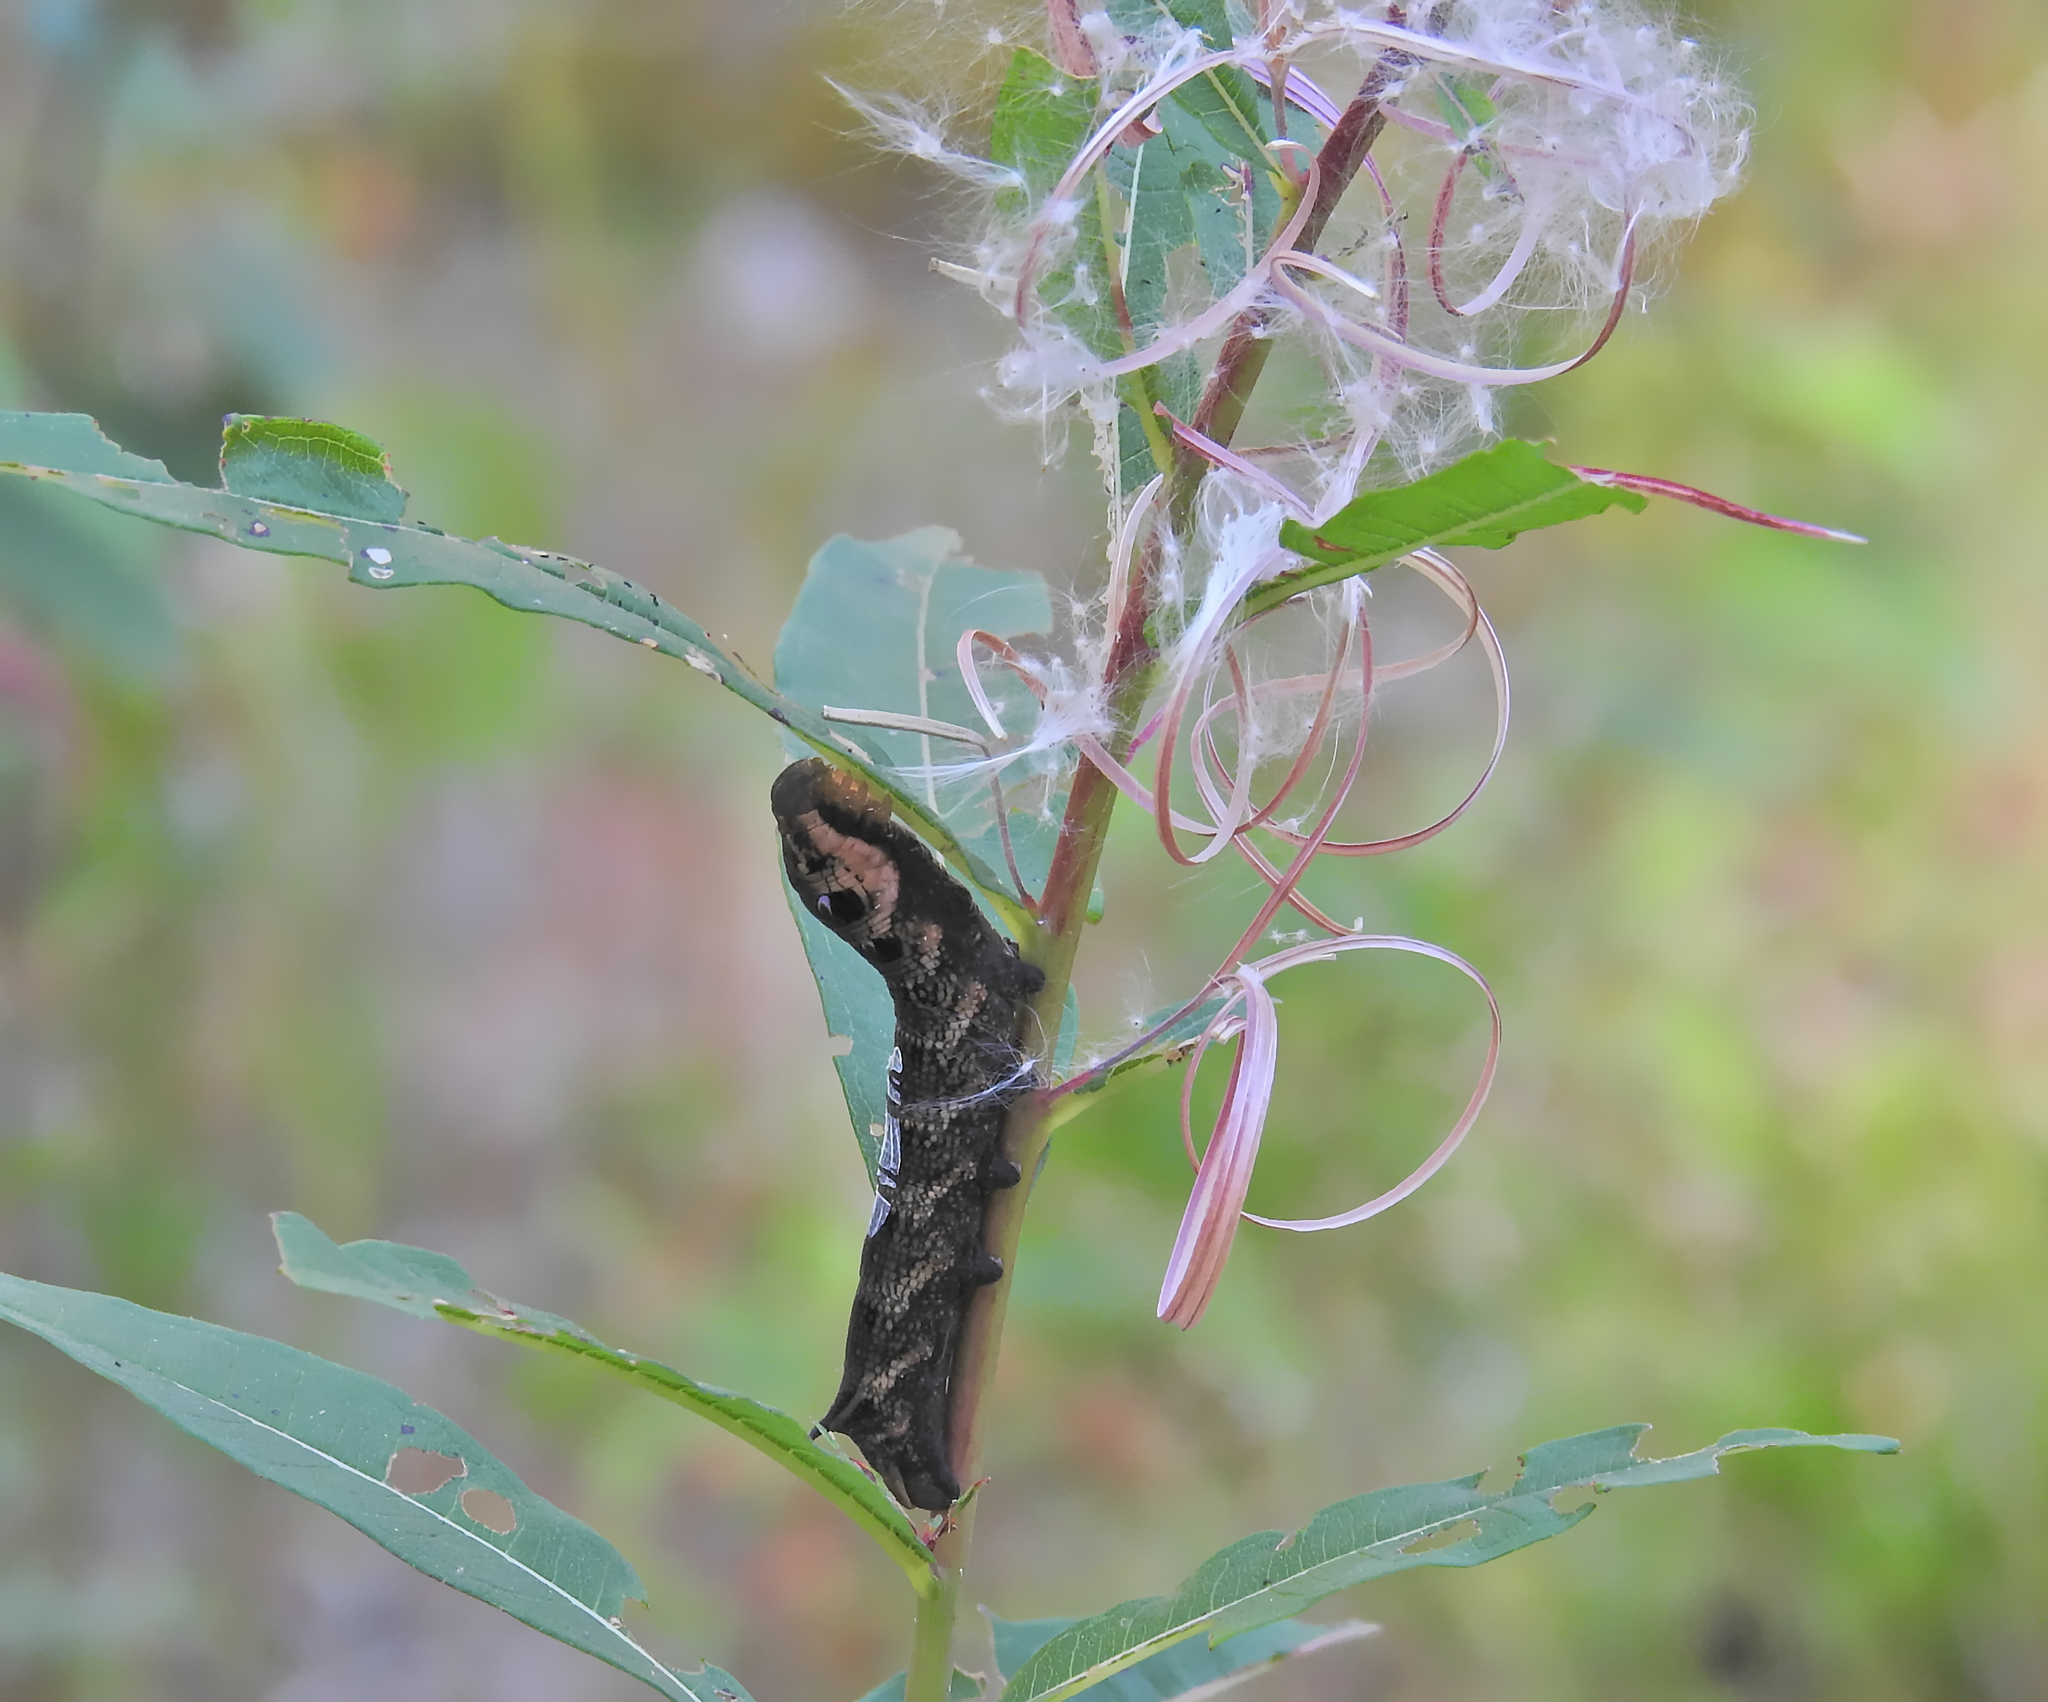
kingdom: Animalia
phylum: Arthropoda
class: Insecta
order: Lepidoptera
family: Sphingidae
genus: Deilephila
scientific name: Deilephila elpenor
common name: Elephant hawk-moth
